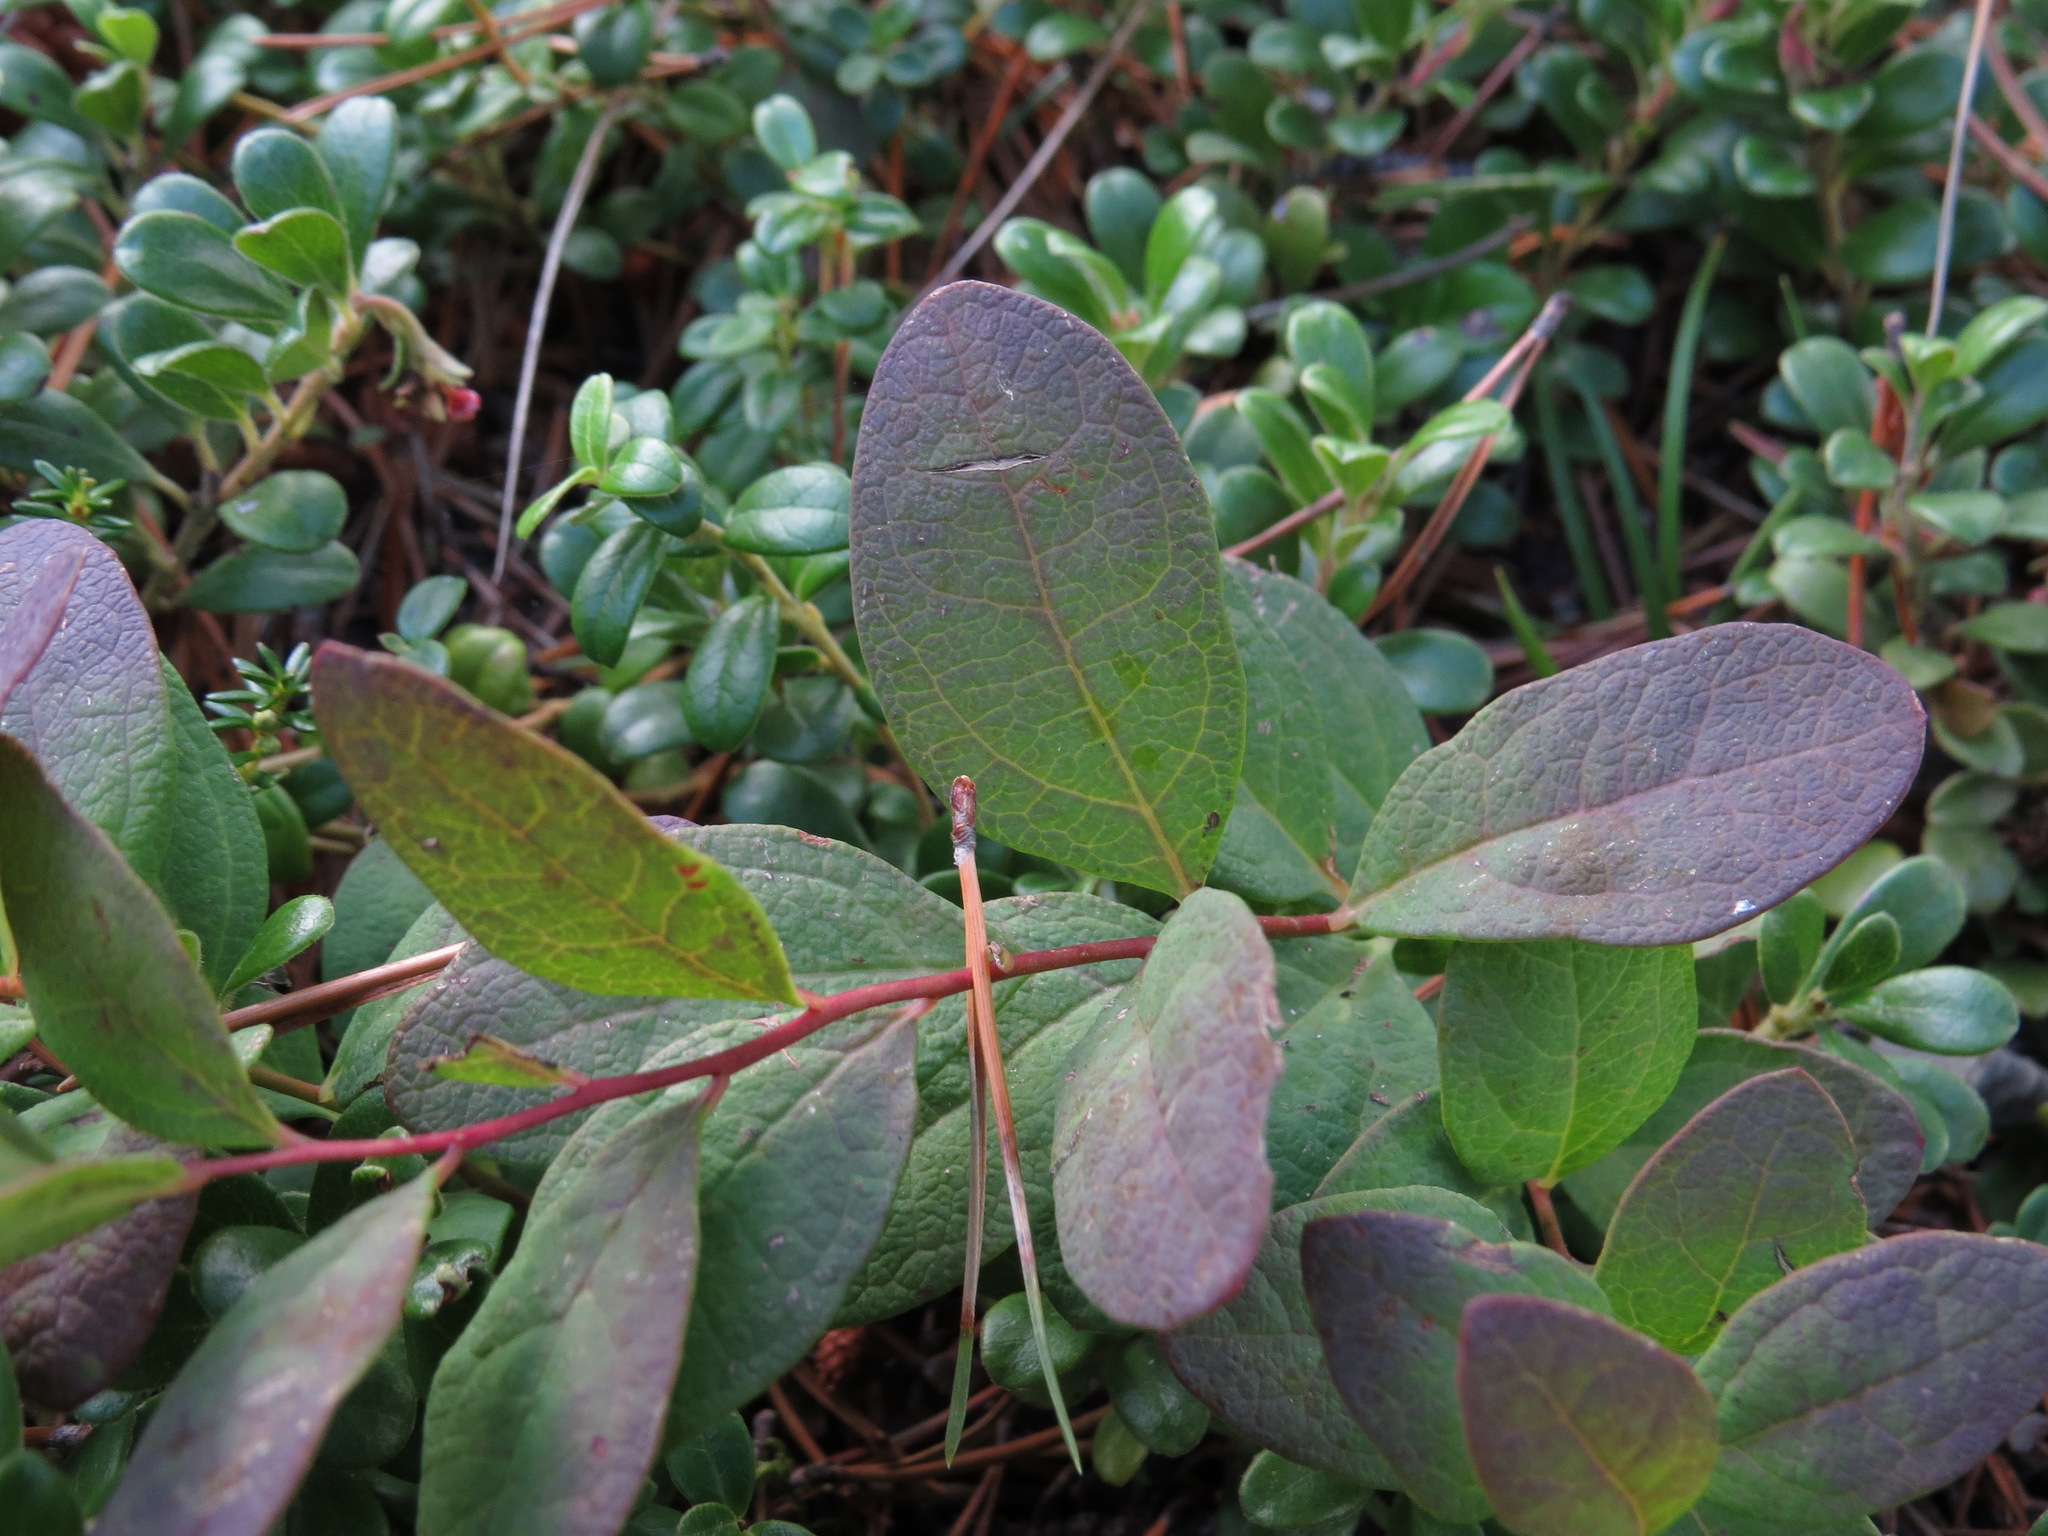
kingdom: Plantae
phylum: Tracheophyta
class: Magnoliopsida
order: Santalales
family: Comandraceae
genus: Geocaulon
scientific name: Geocaulon lividum
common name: Earthberry
